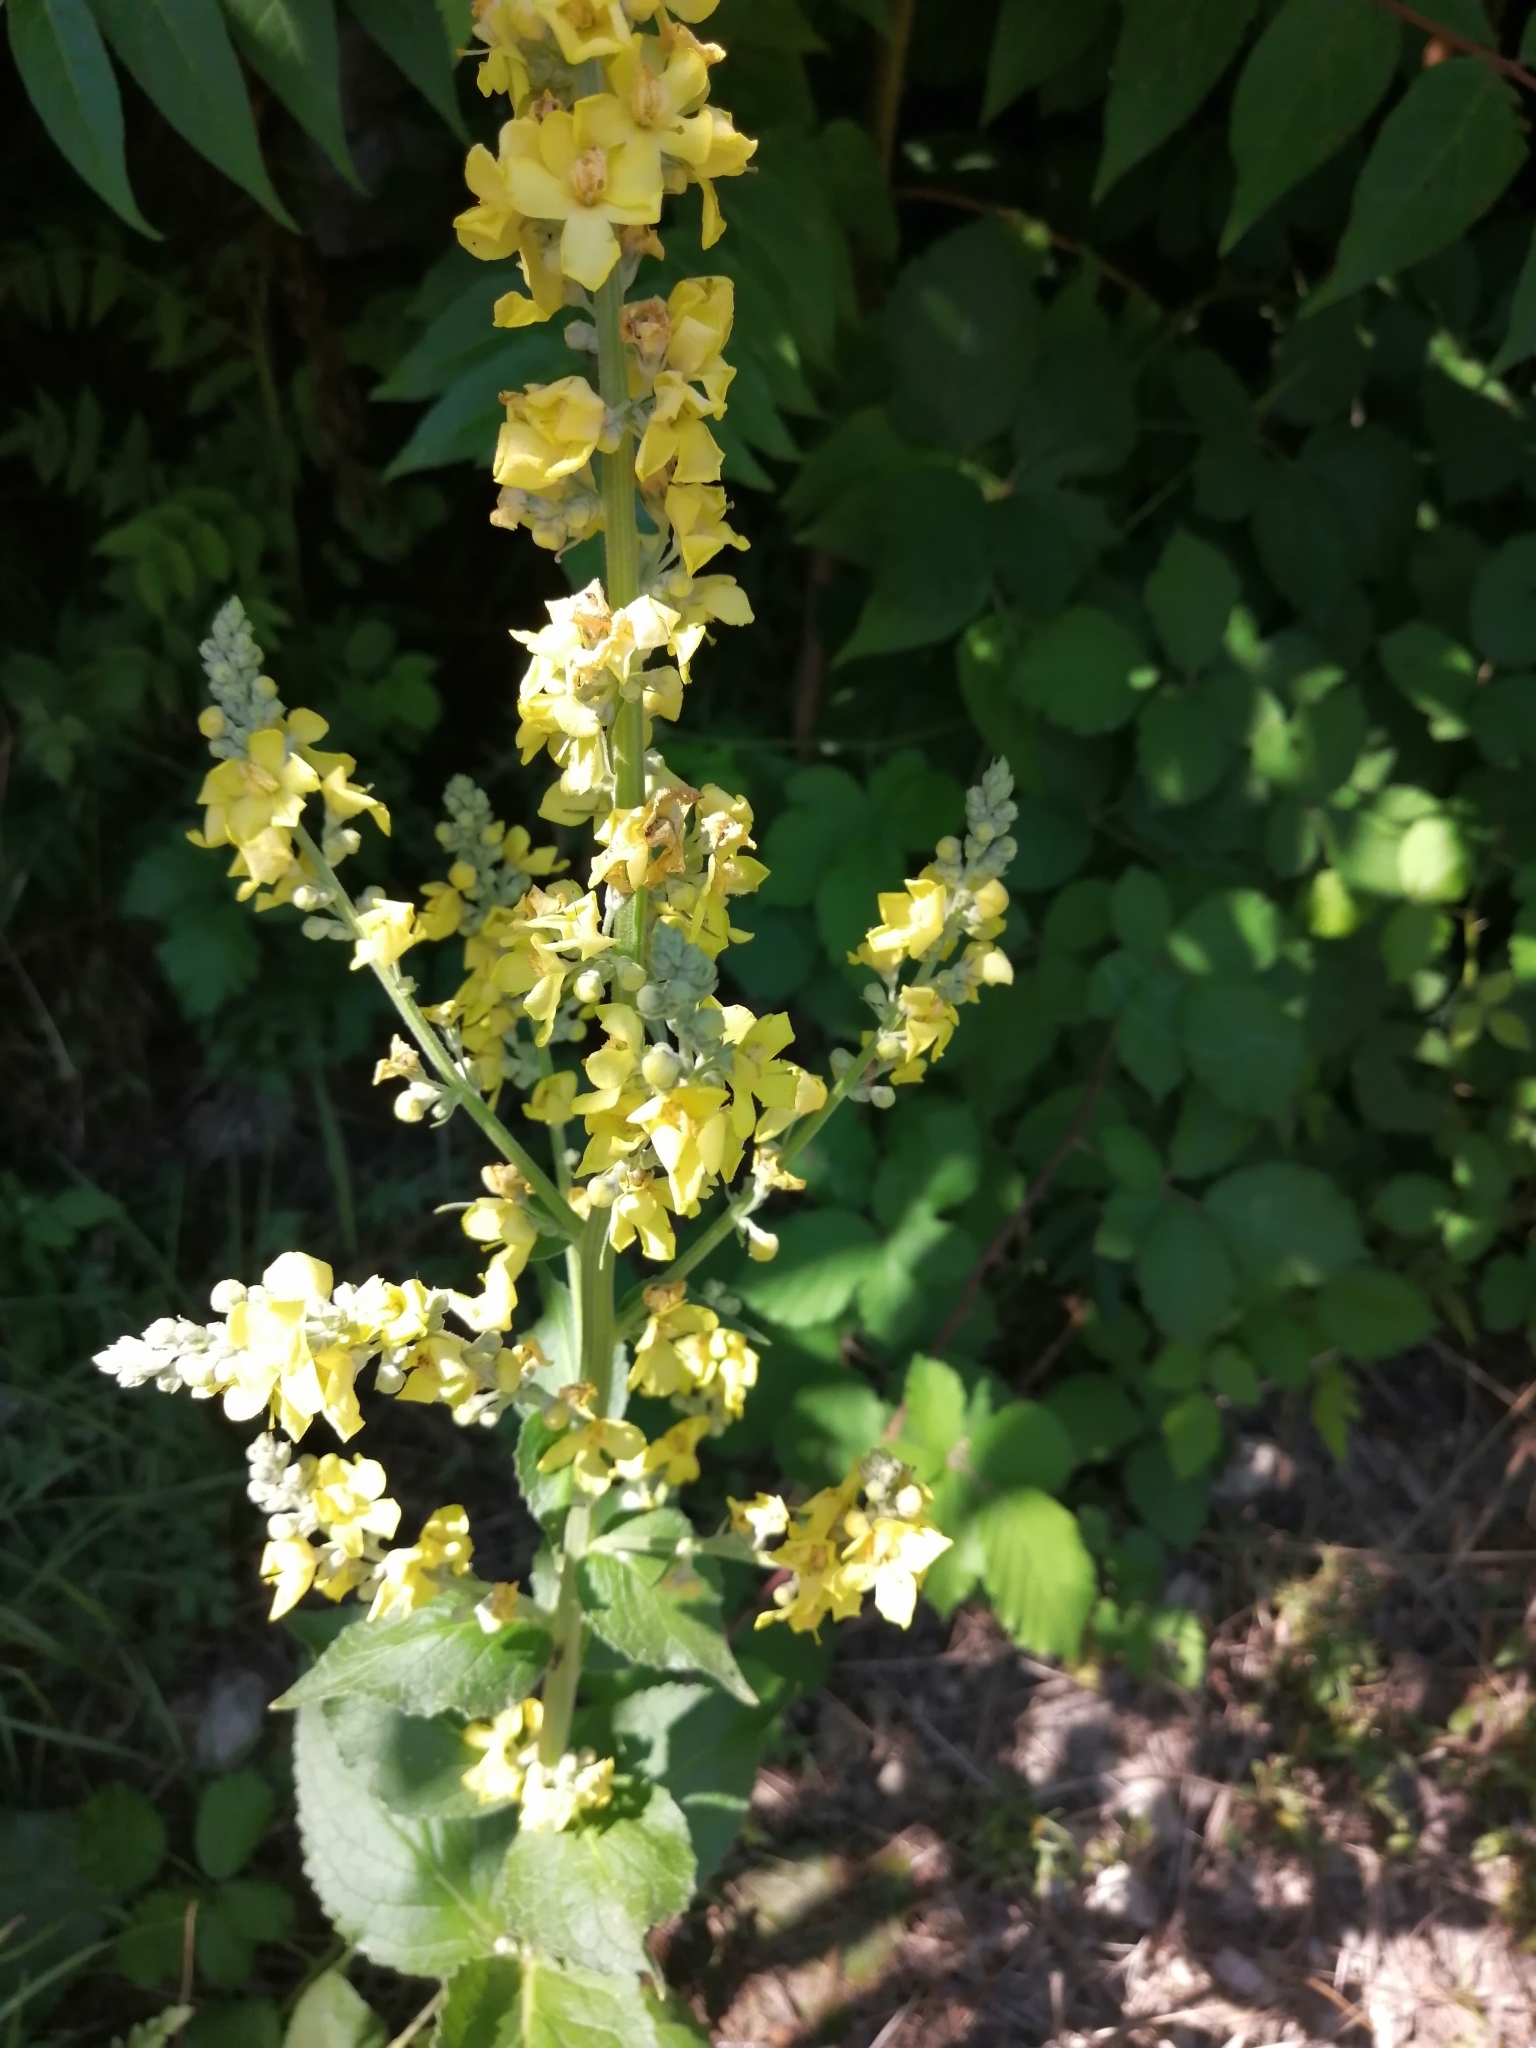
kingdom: Plantae
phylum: Tracheophyta
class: Magnoliopsida
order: Lamiales
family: Scrophulariaceae
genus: Verbascum
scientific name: Verbascum lychnitis
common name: White mullein
